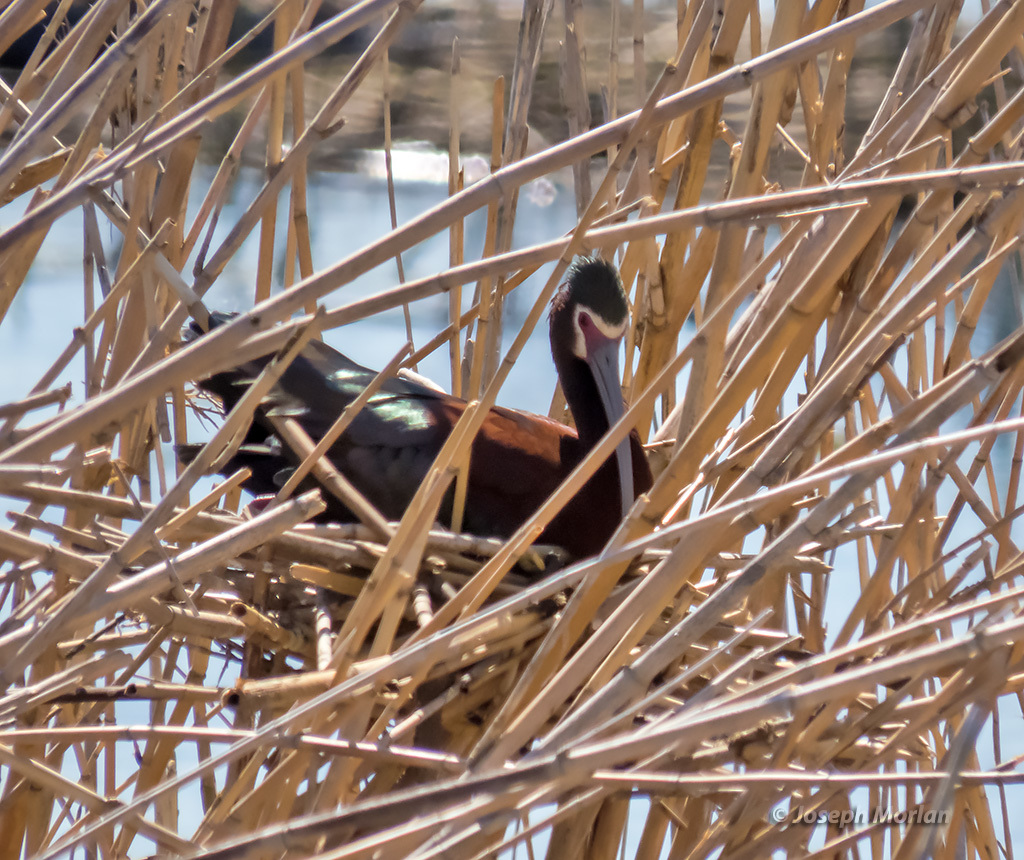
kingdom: Animalia
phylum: Chordata
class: Aves
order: Pelecaniformes
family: Threskiornithidae
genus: Plegadis
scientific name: Plegadis chihi
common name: White-faced ibis
